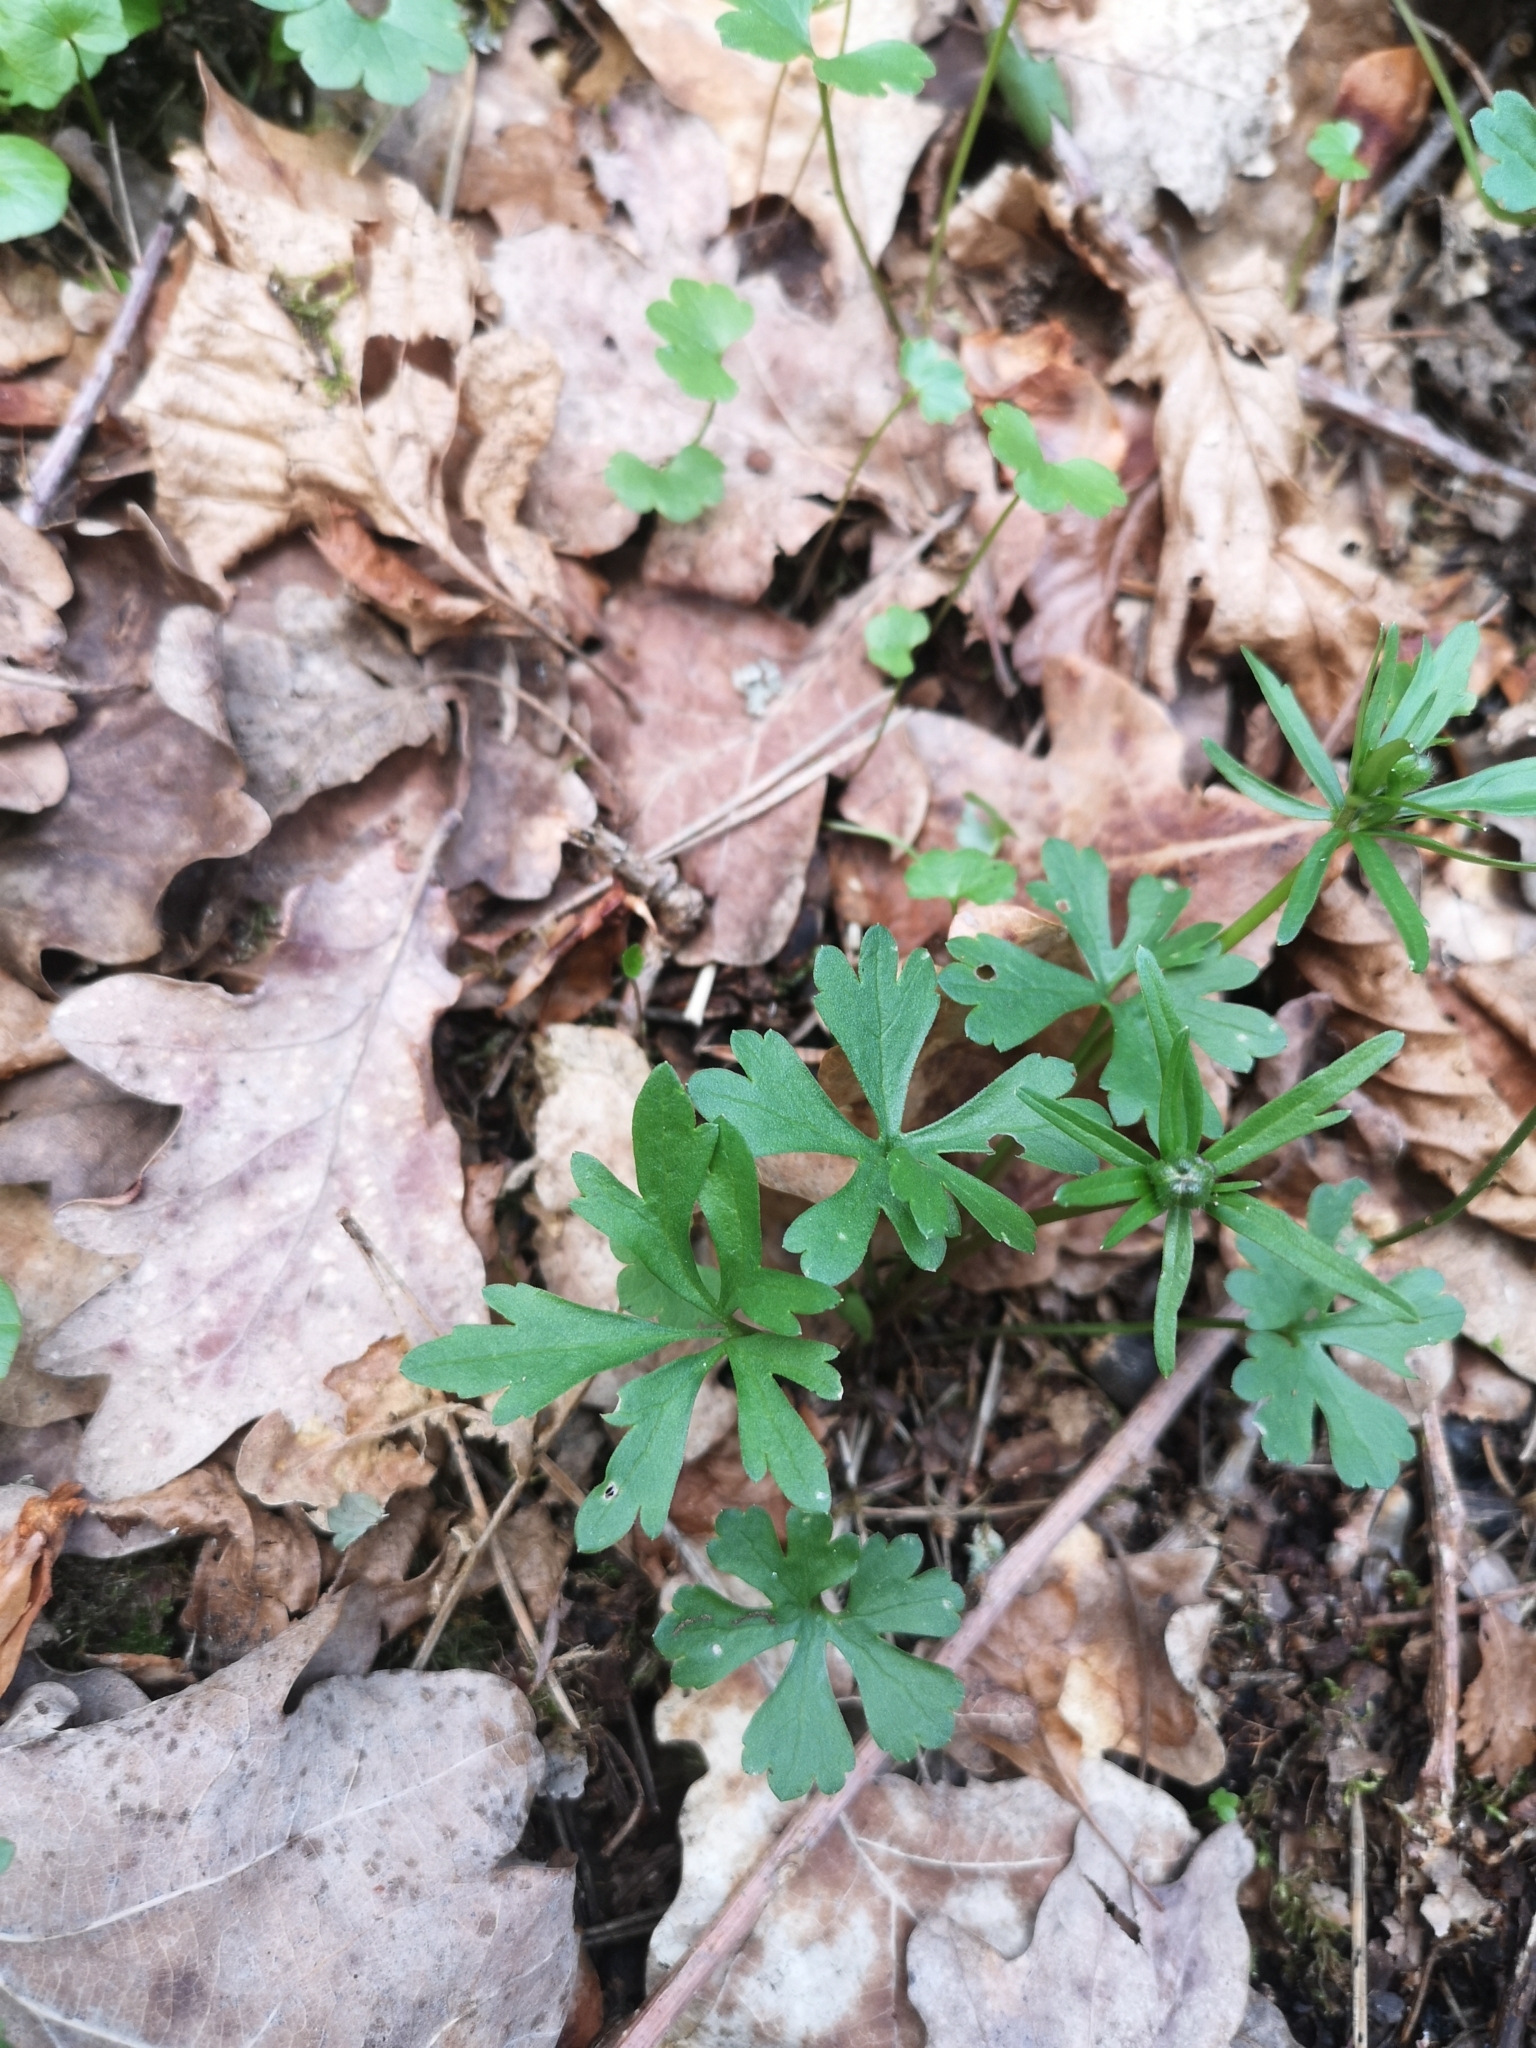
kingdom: Plantae
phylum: Tracheophyta
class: Magnoliopsida
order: Ranunculales
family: Ranunculaceae
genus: Ranunculus
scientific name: Ranunculus auricomus
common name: Goldilocks buttercup
